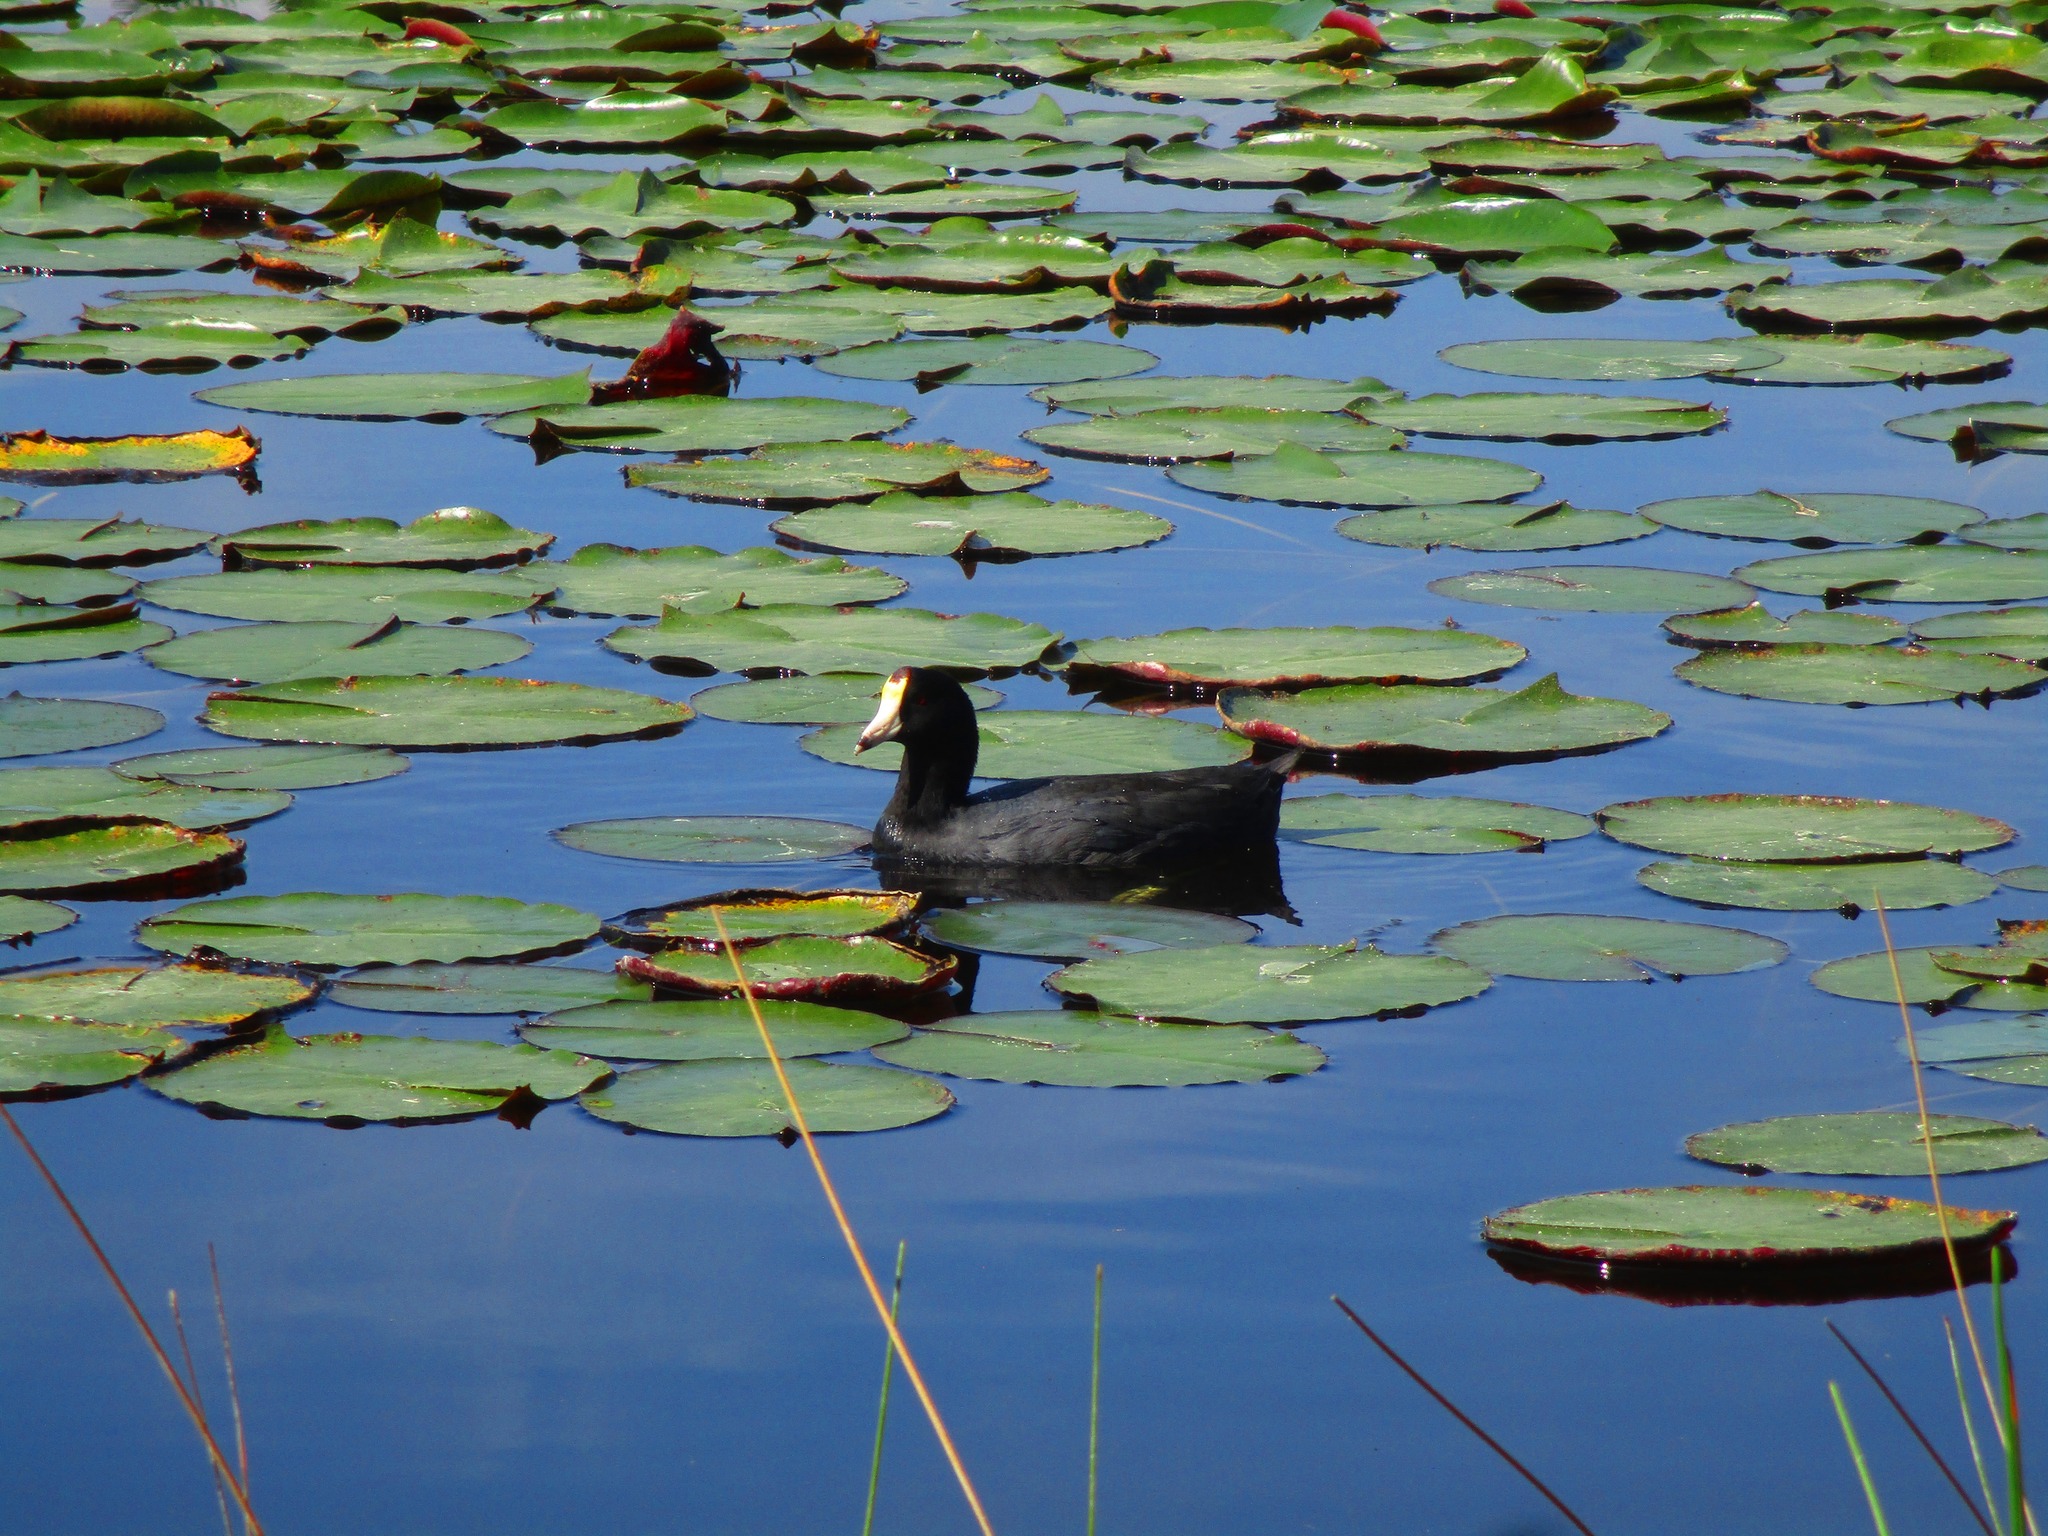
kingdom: Animalia
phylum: Chordata
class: Aves
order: Gruiformes
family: Rallidae
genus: Fulica
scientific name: Fulica americana
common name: American coot
